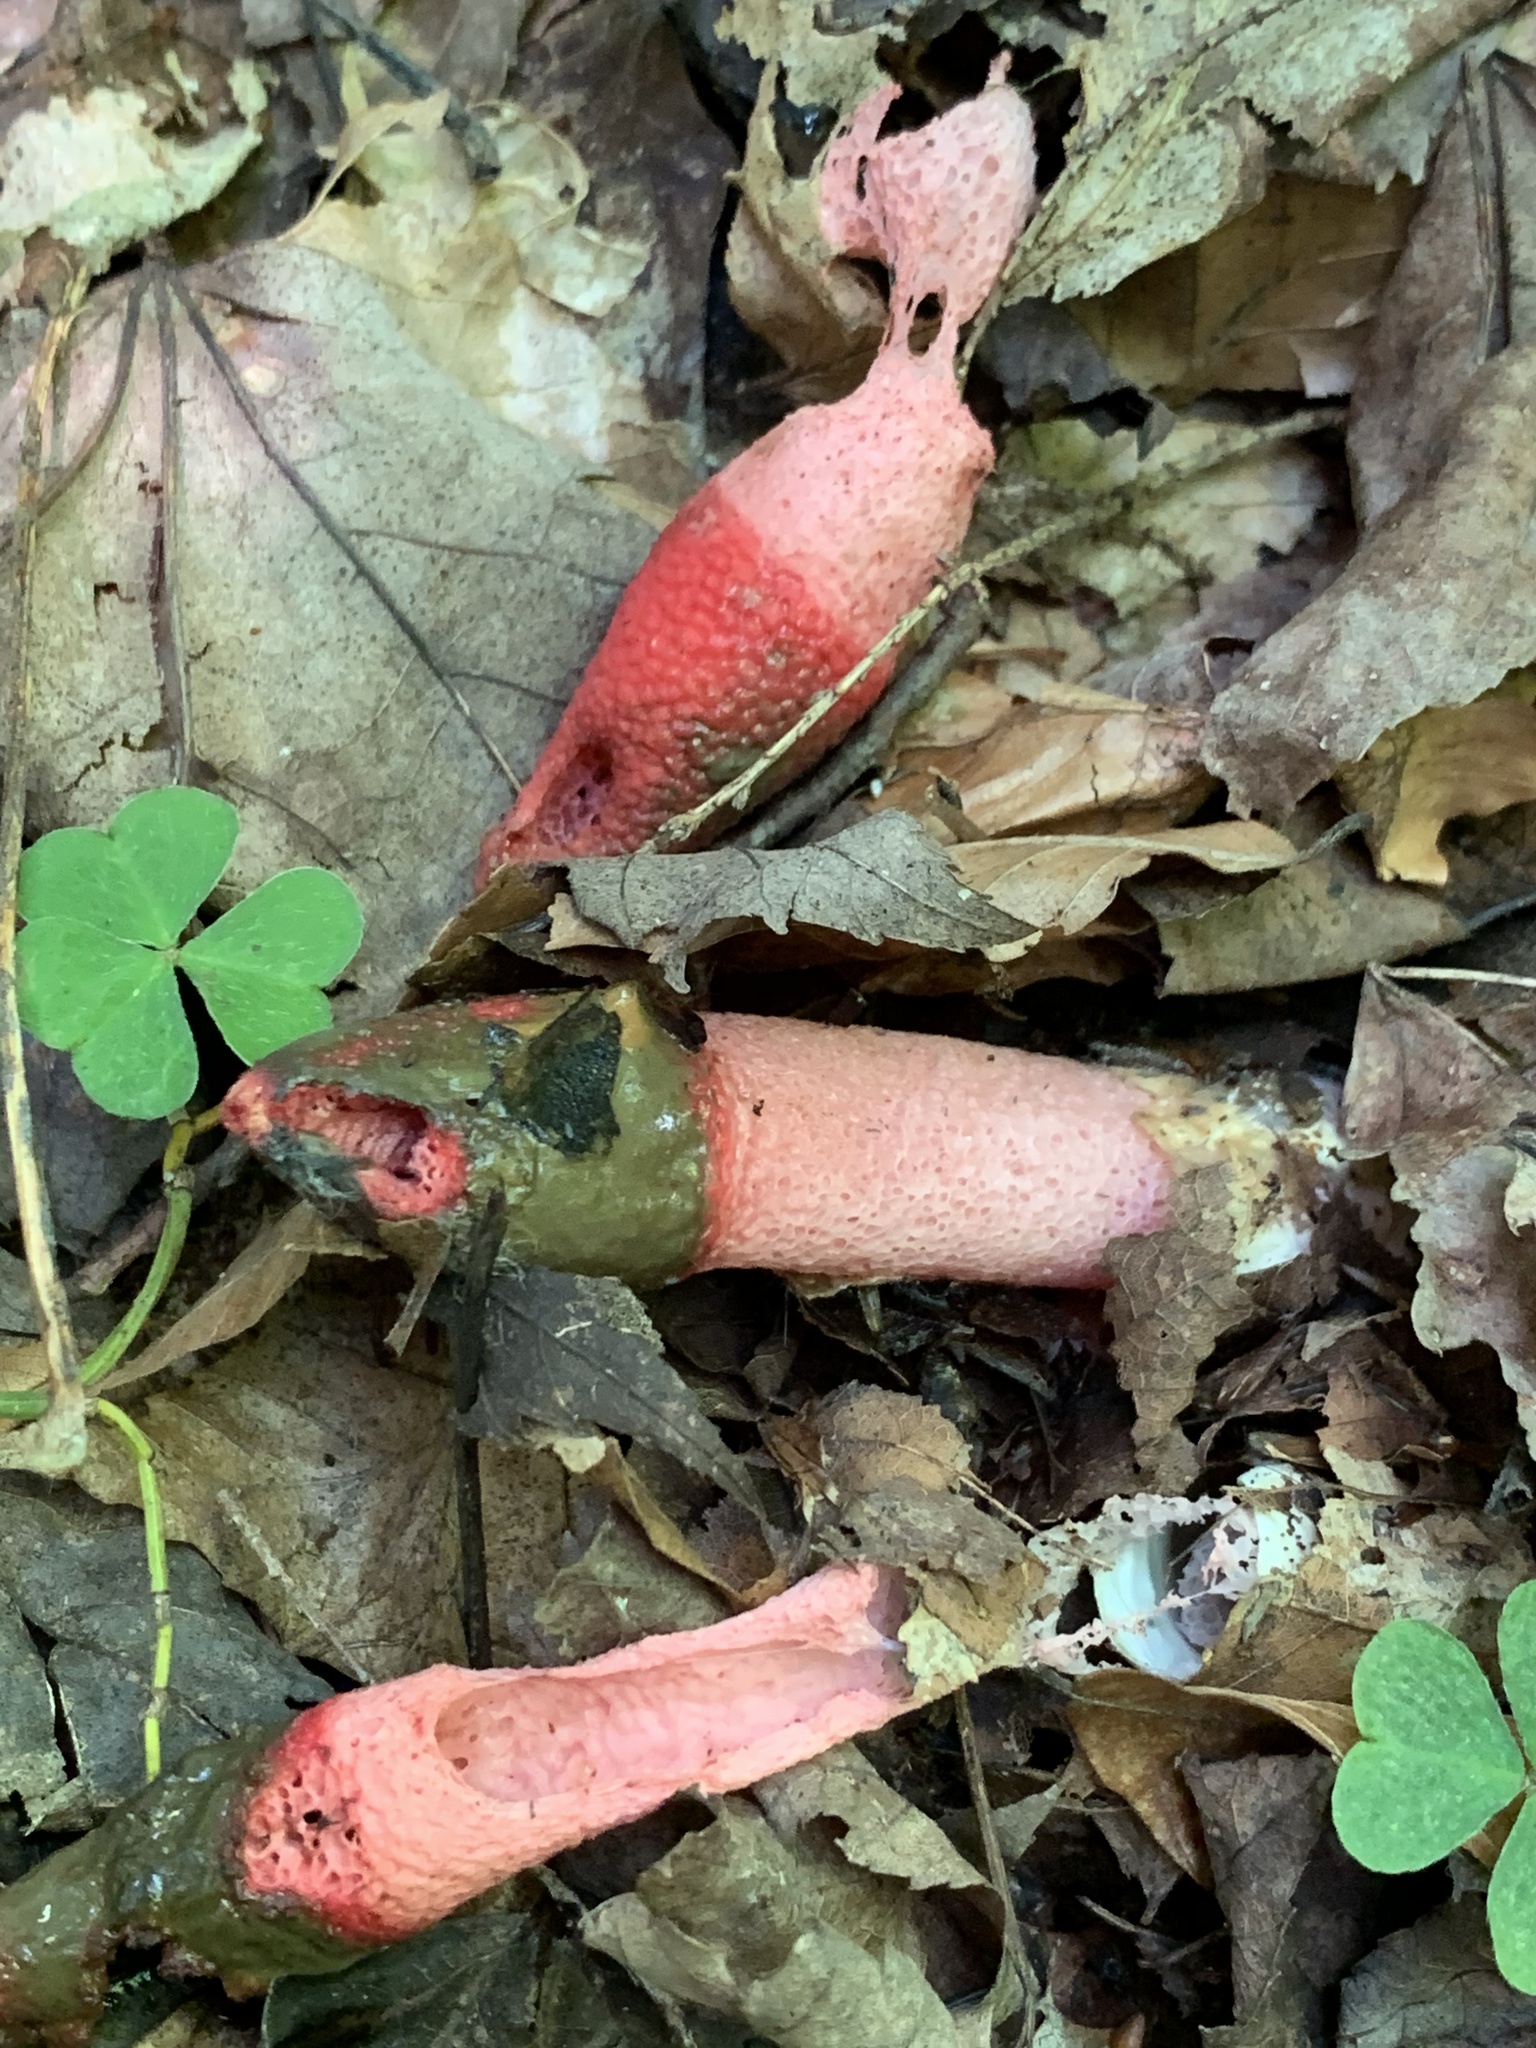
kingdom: Fungi
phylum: Basidiomycota
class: Agaricomycetes
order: Phallales
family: Phallaceae
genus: Mutinus
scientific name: Mutinus ravenelii
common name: Red stinkhorn
